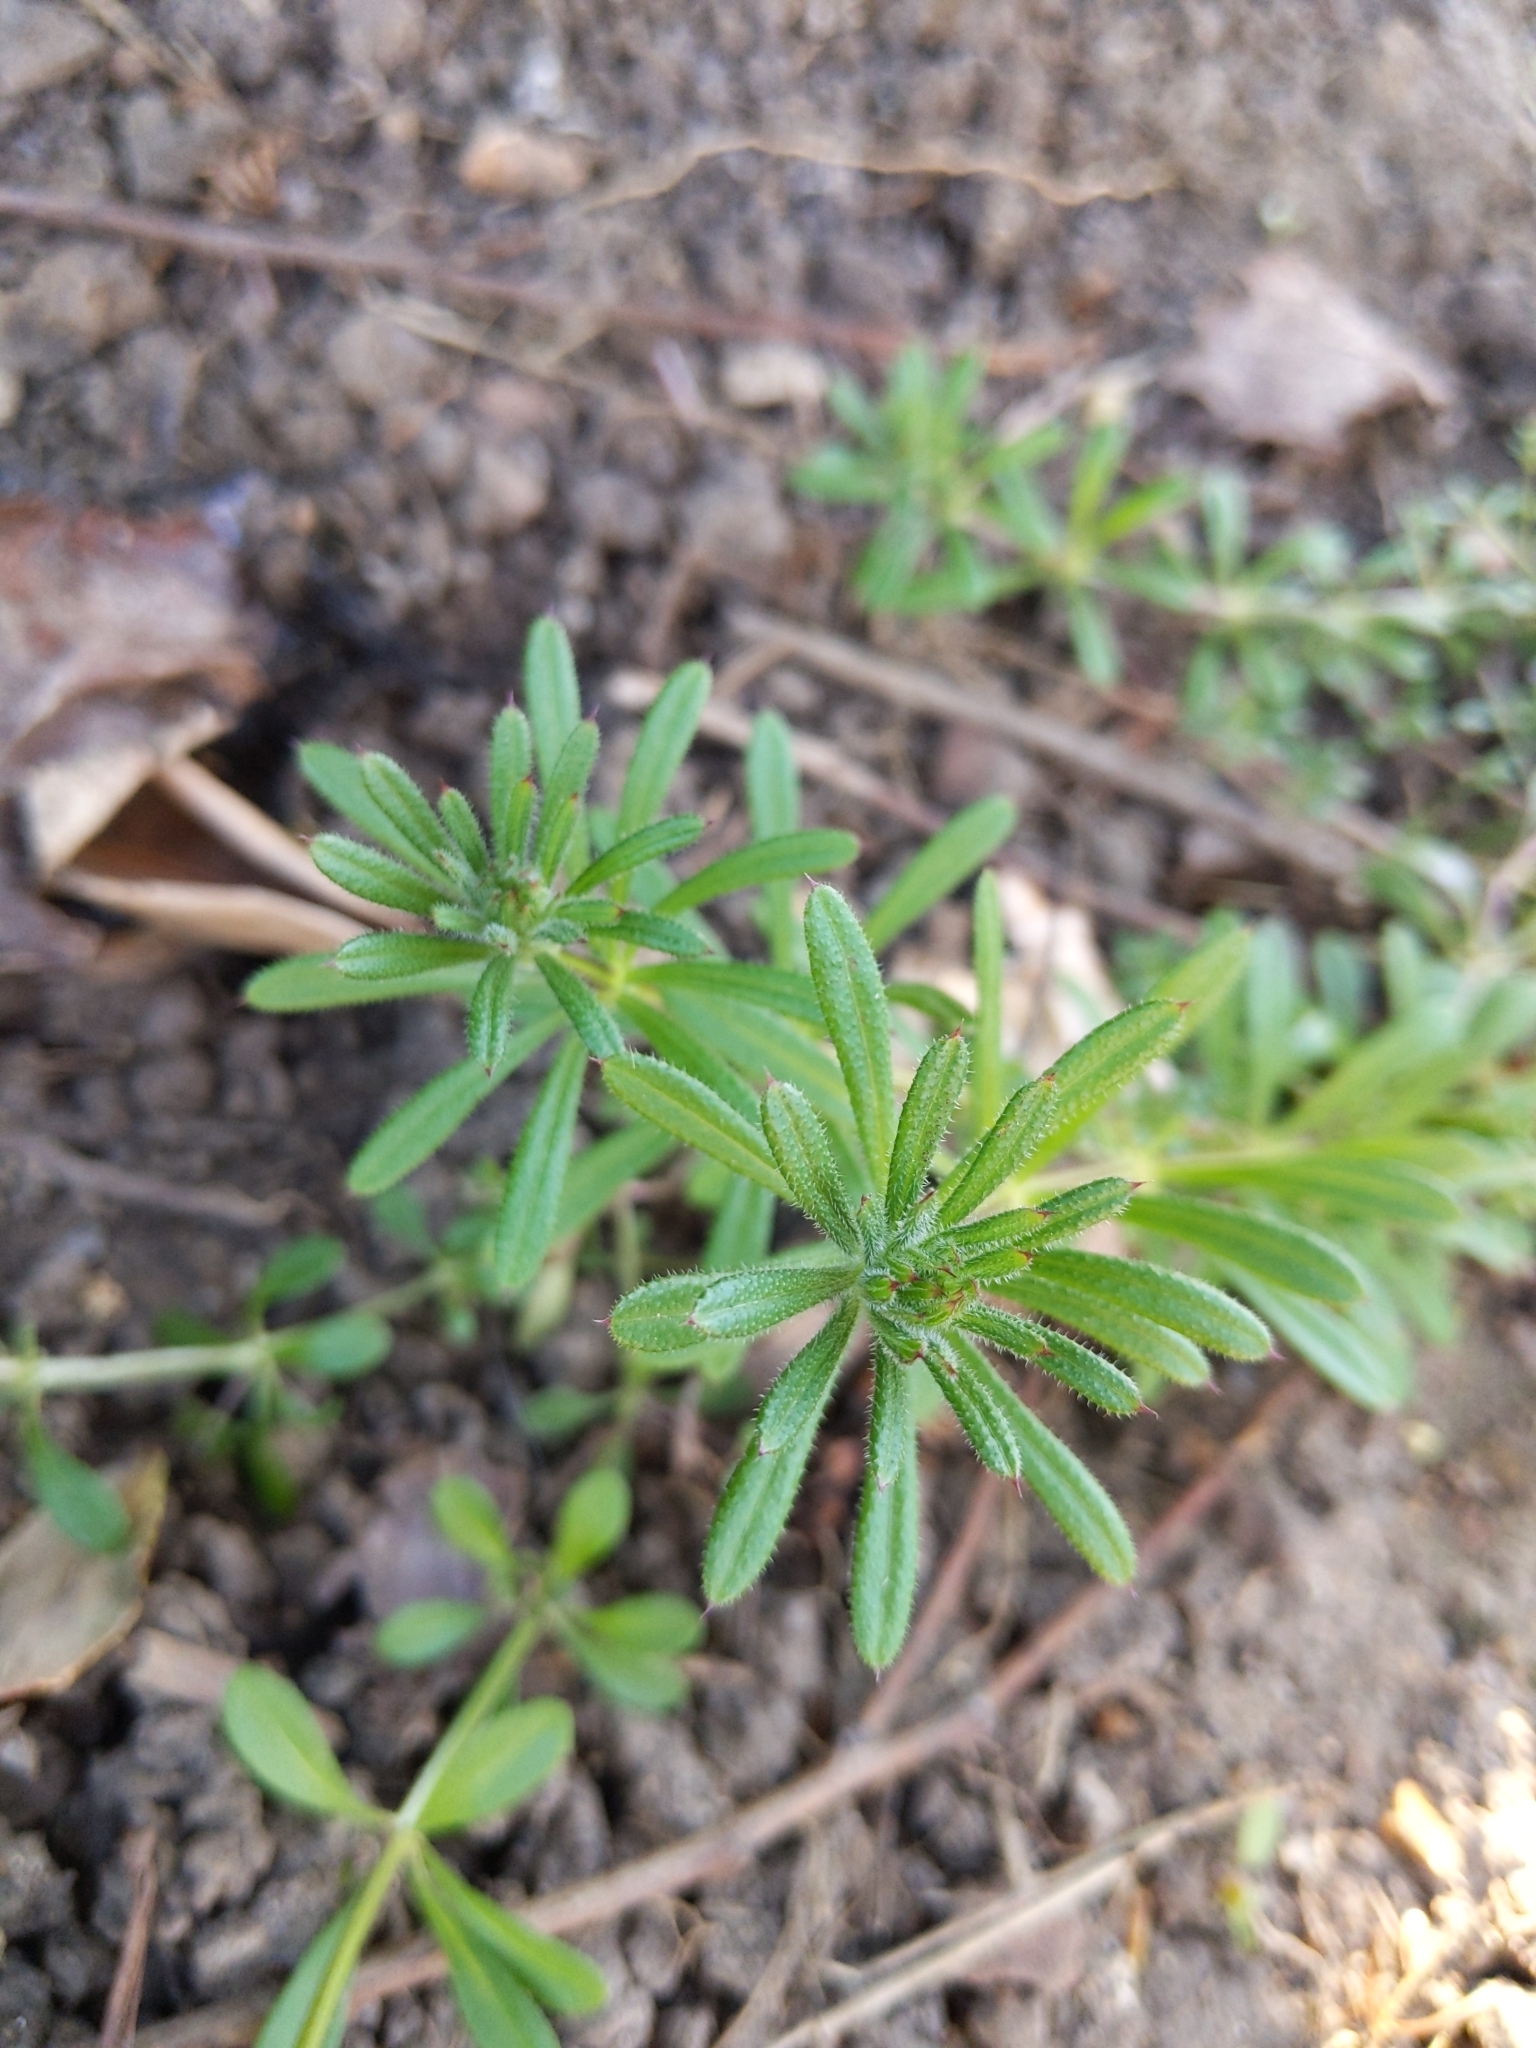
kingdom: Plantae
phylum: Tracheophyta
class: Magnoliopsida
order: Gentianales
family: Rubiaceae
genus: Galium
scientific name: Galium aparine
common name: Cleavers
